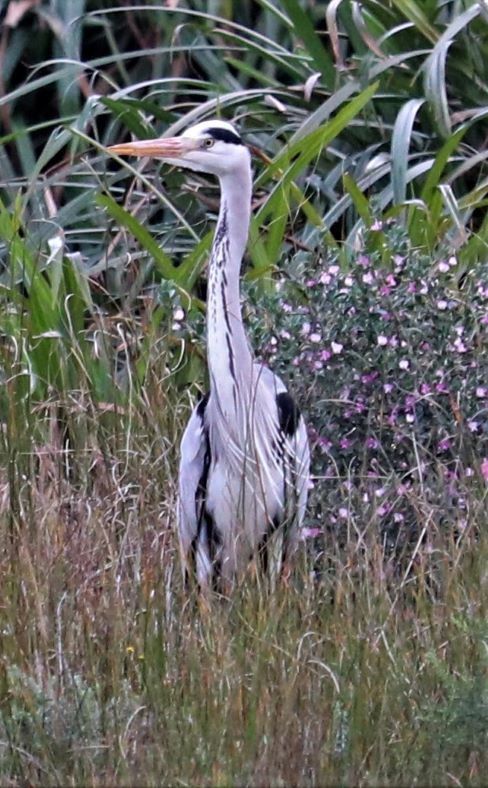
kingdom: Animalia
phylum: Chordata
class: Aves
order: Pelecaniformes
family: Ardeidae
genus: Ardea
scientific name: Ardea cinerea
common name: Grey heron
